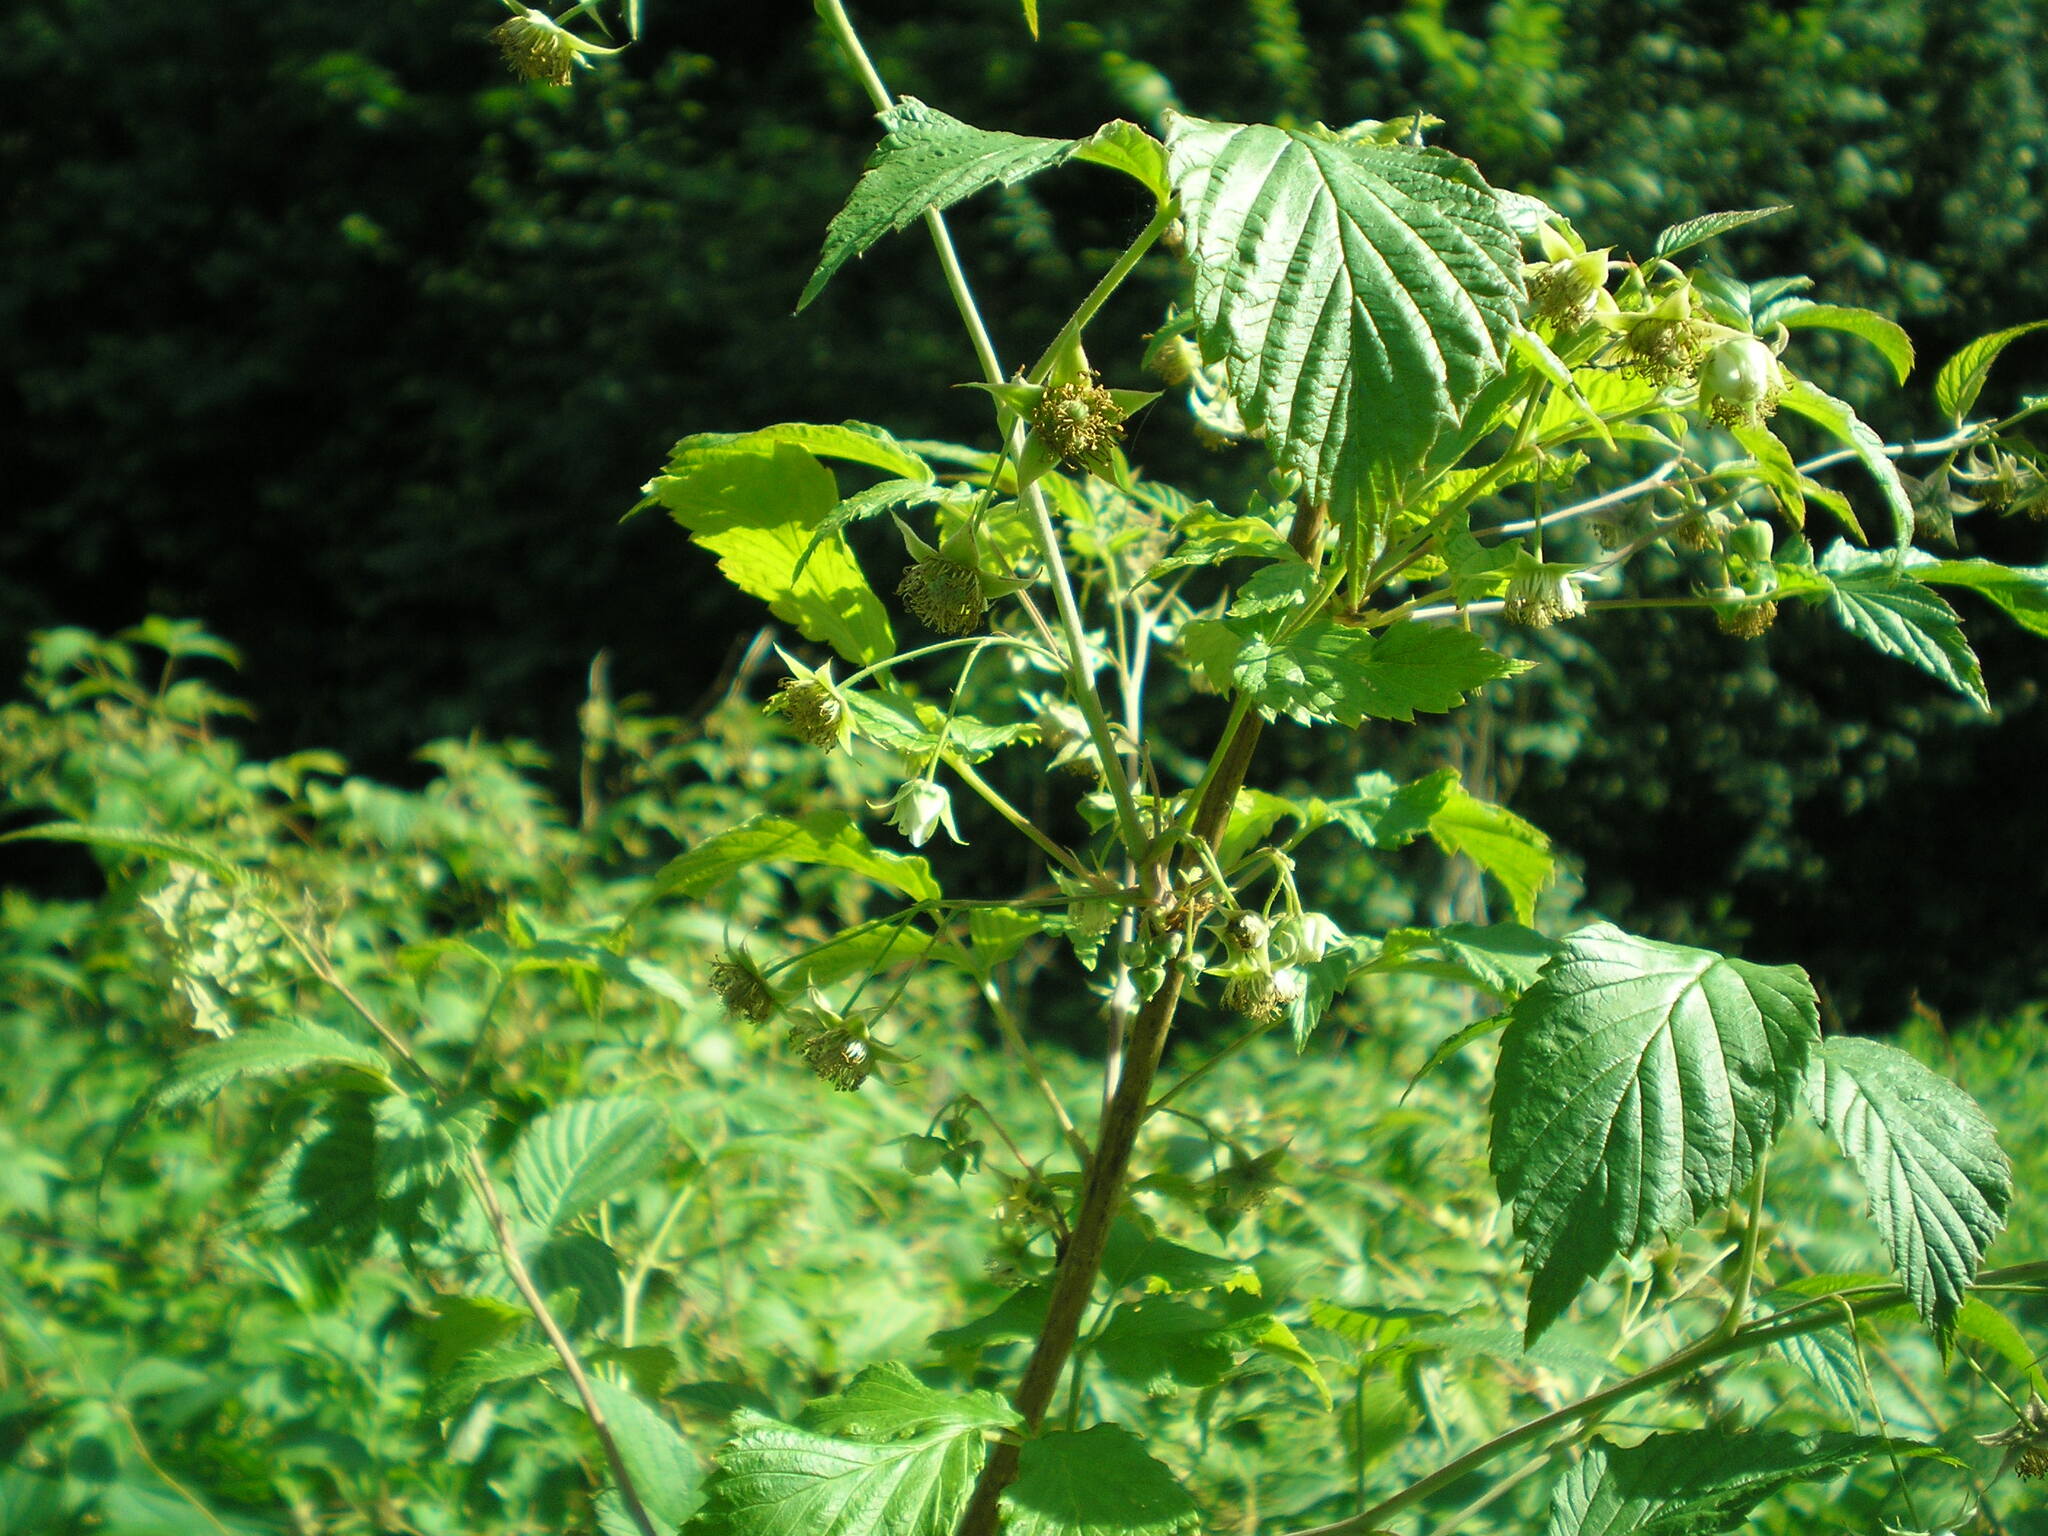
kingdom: Plantae
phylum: Tracheophyta
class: Magnoliopsida
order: Rosales
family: Rosaceae
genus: Rubus
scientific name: Rubus idaeus
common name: Raspberry
